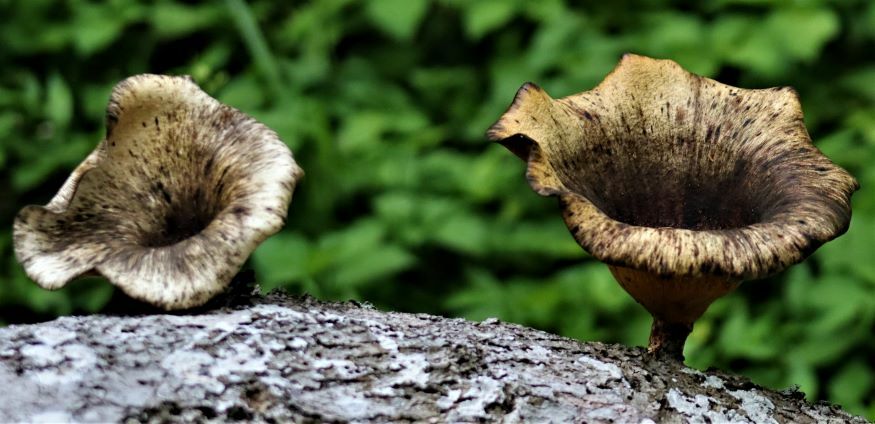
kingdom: Fungi
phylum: Basidiomycota
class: Agaricomycetes
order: Polyporales
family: Polyporaceae
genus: Lentinus
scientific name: Lentinus sajor-caju
